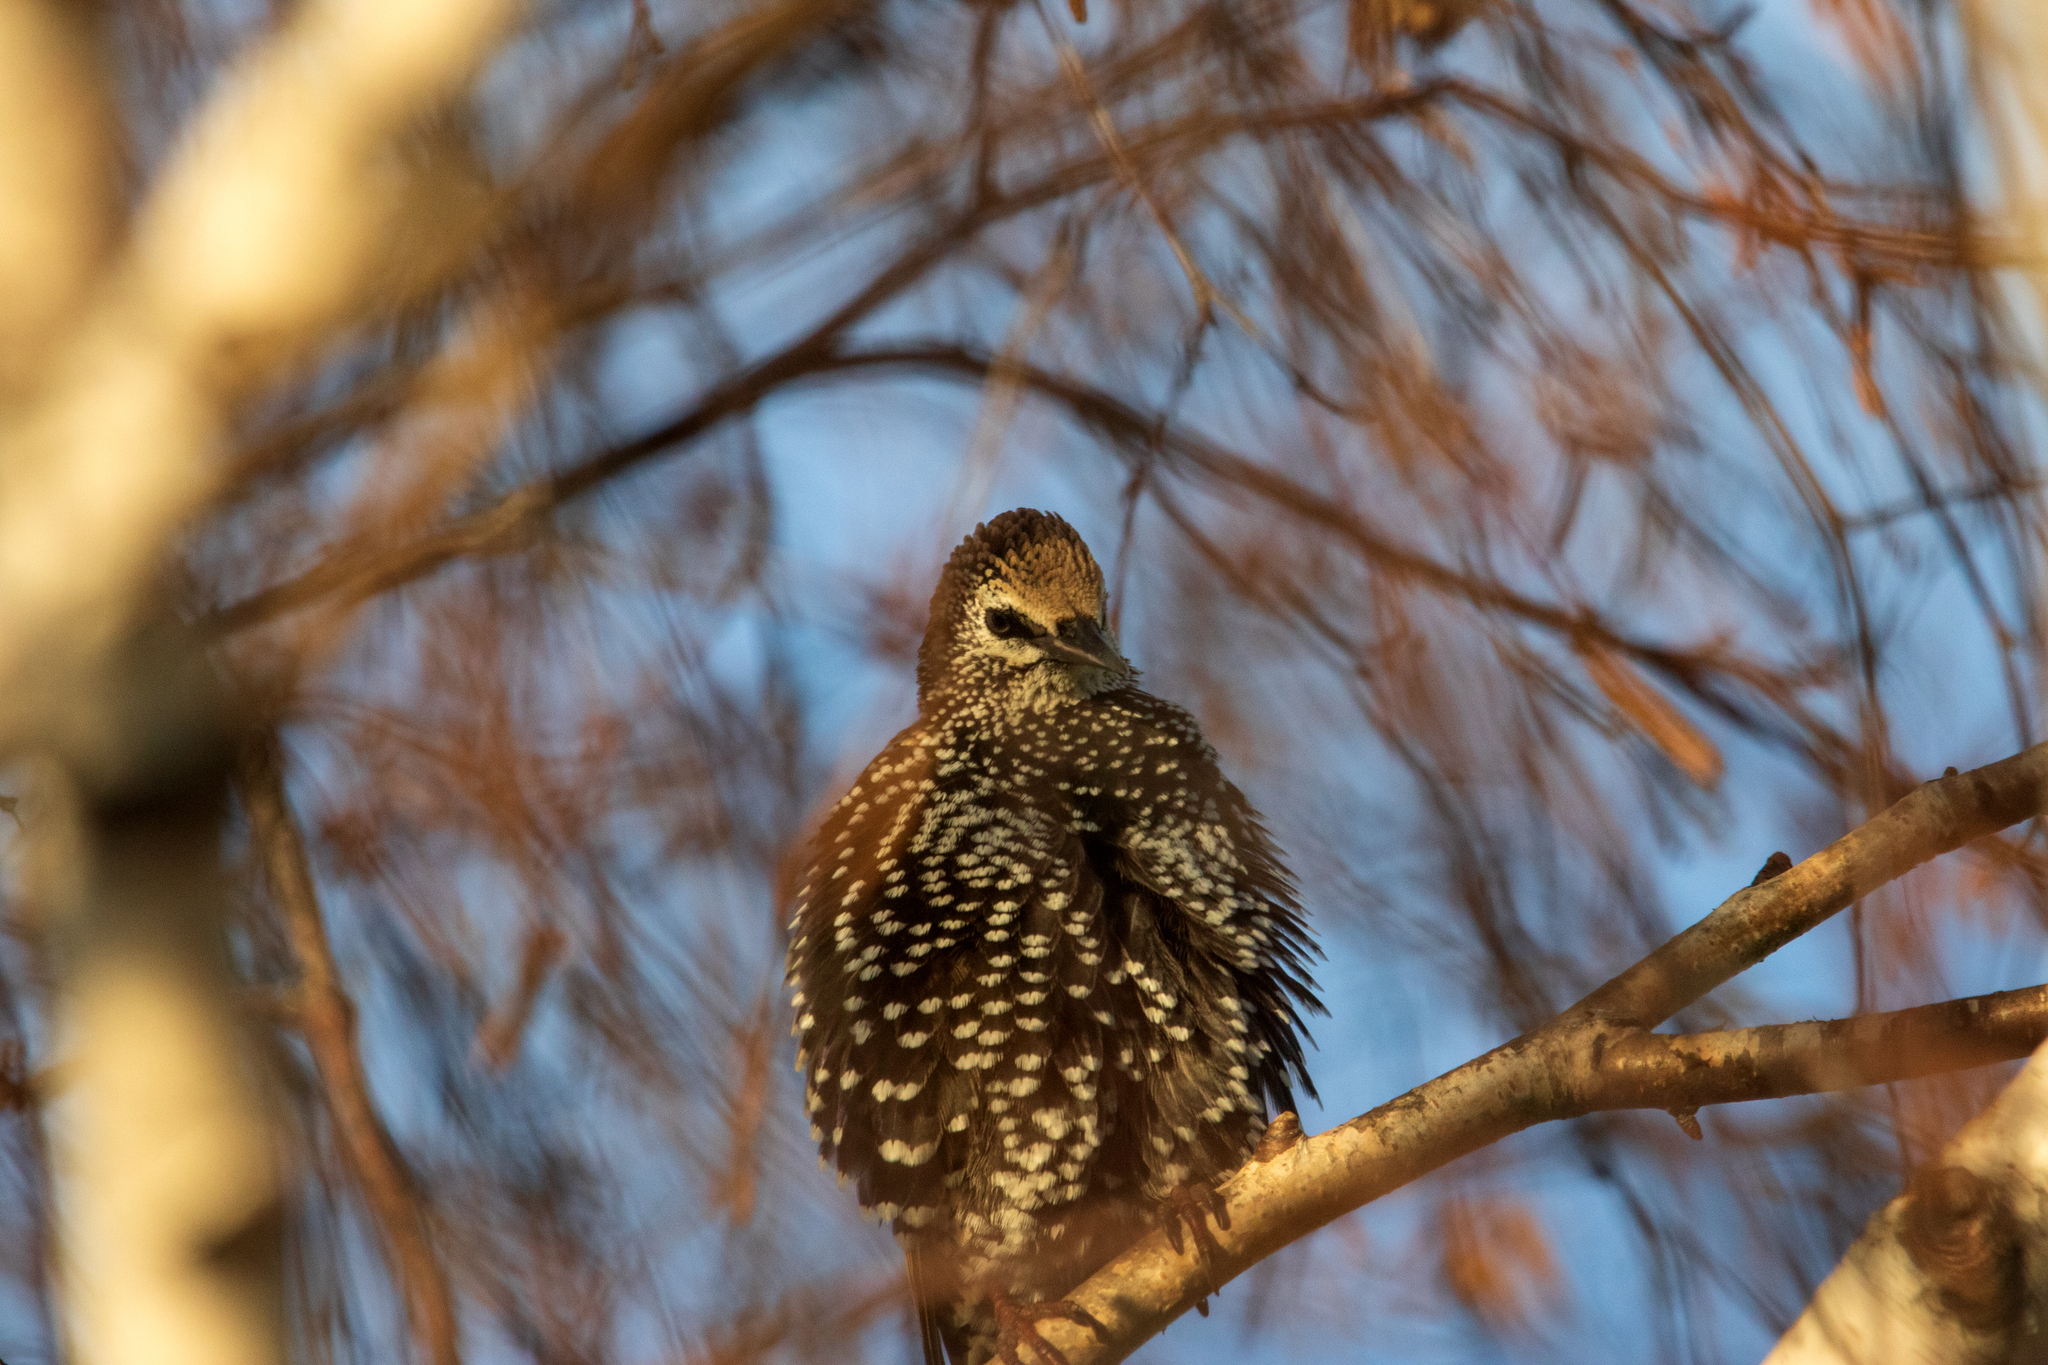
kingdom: Animalia
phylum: Chordata
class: Aves
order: Passeriformes
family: Sturnidae
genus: Sturnus
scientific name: Sturnus vulgaris
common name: Common starling
